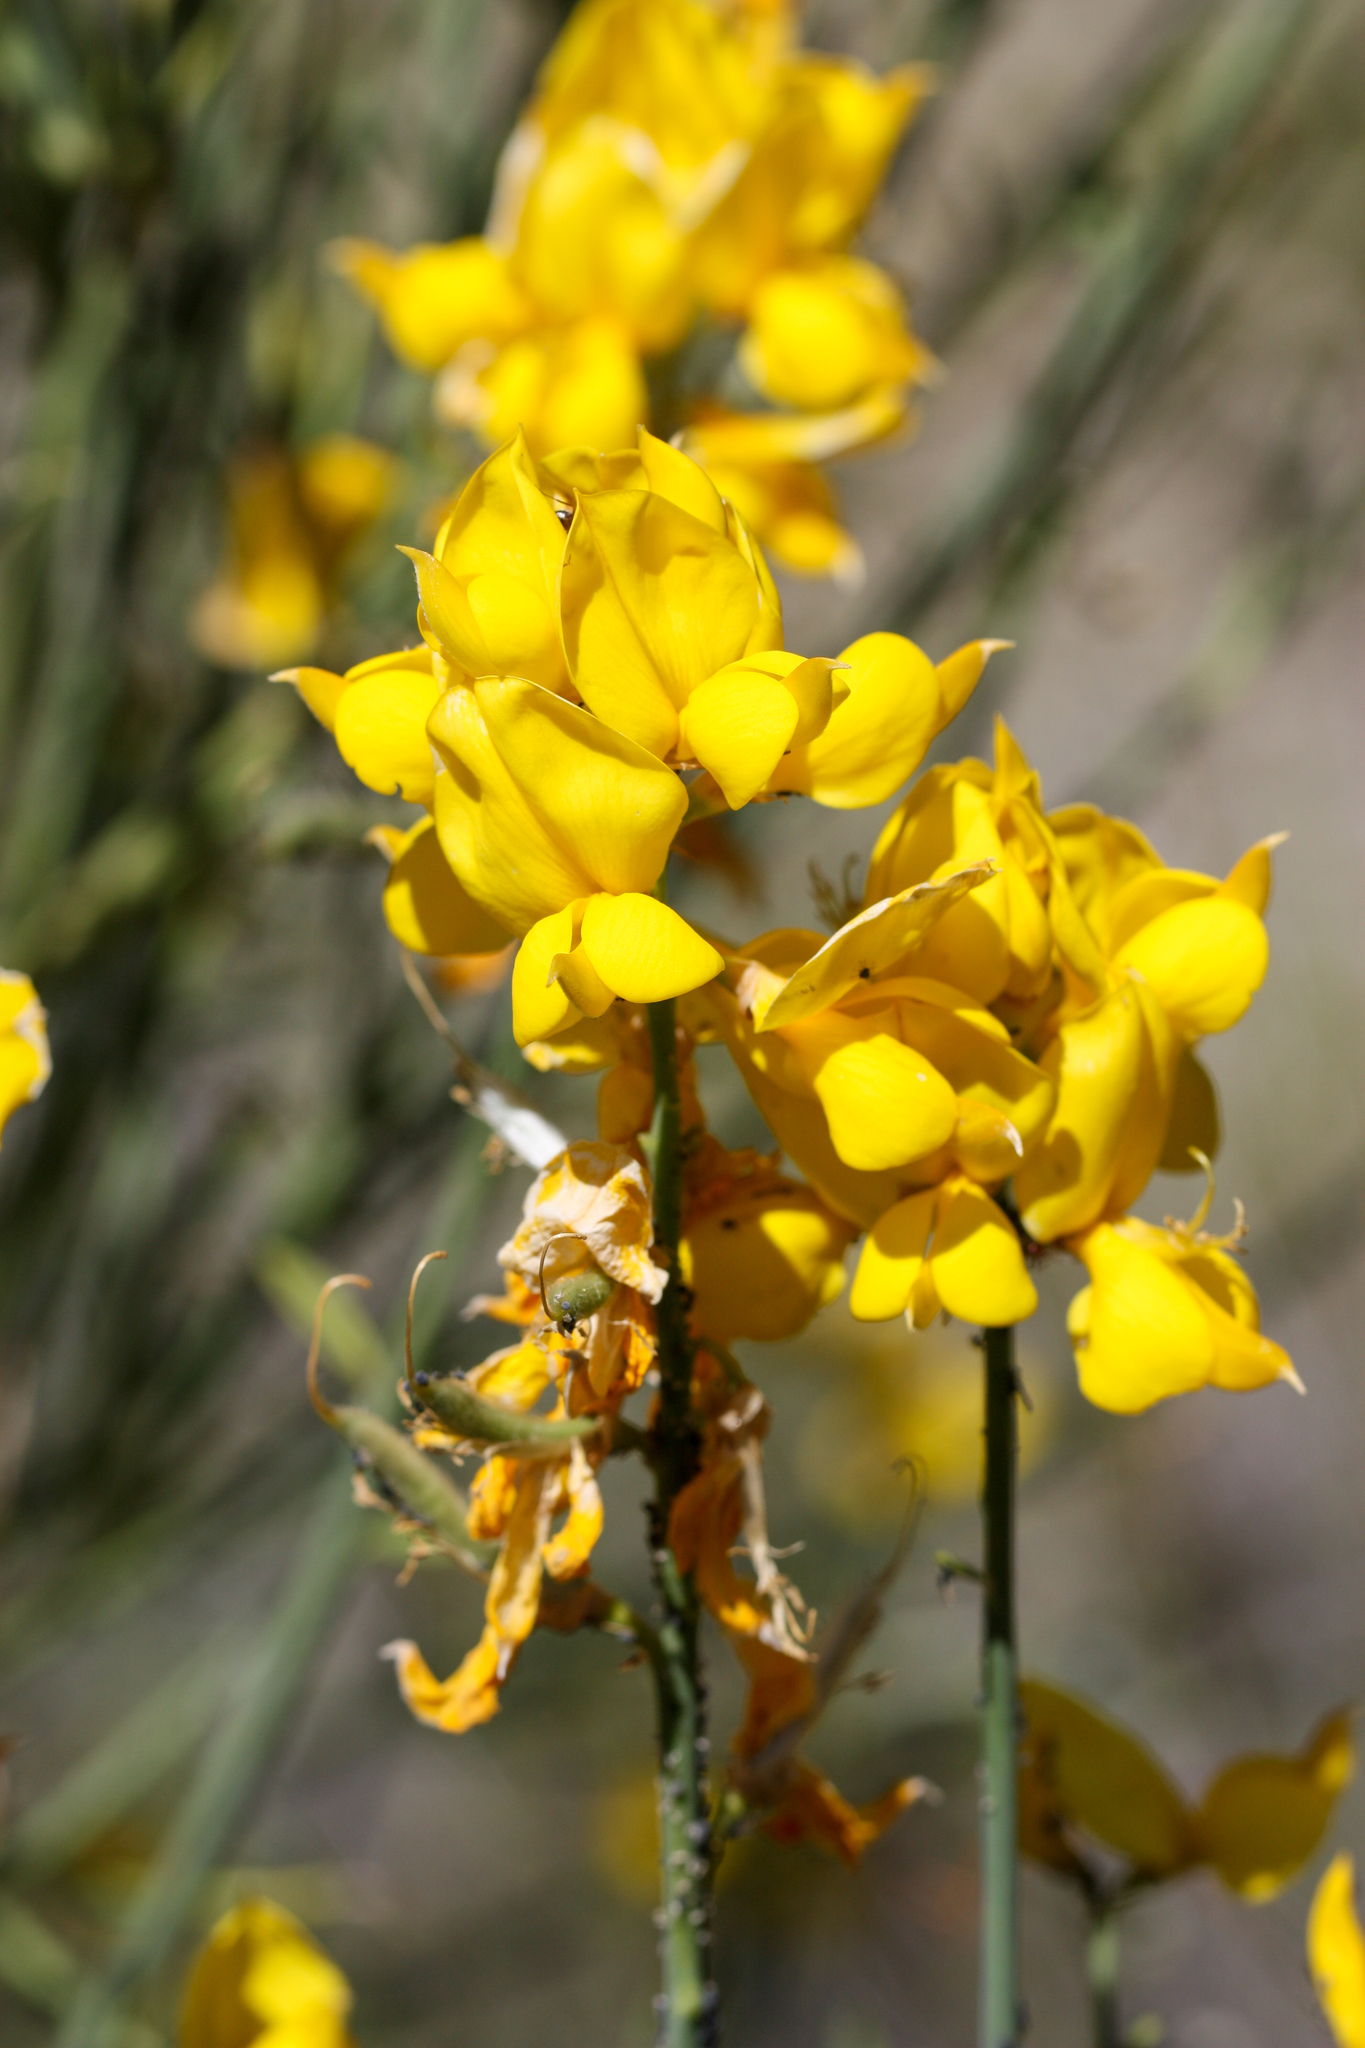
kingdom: Plantae
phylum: Tracheophyta
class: Magnoliopsida
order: Fabales
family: Fabaceae
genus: Spartium
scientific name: Spartium junceum
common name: Spanish broom
